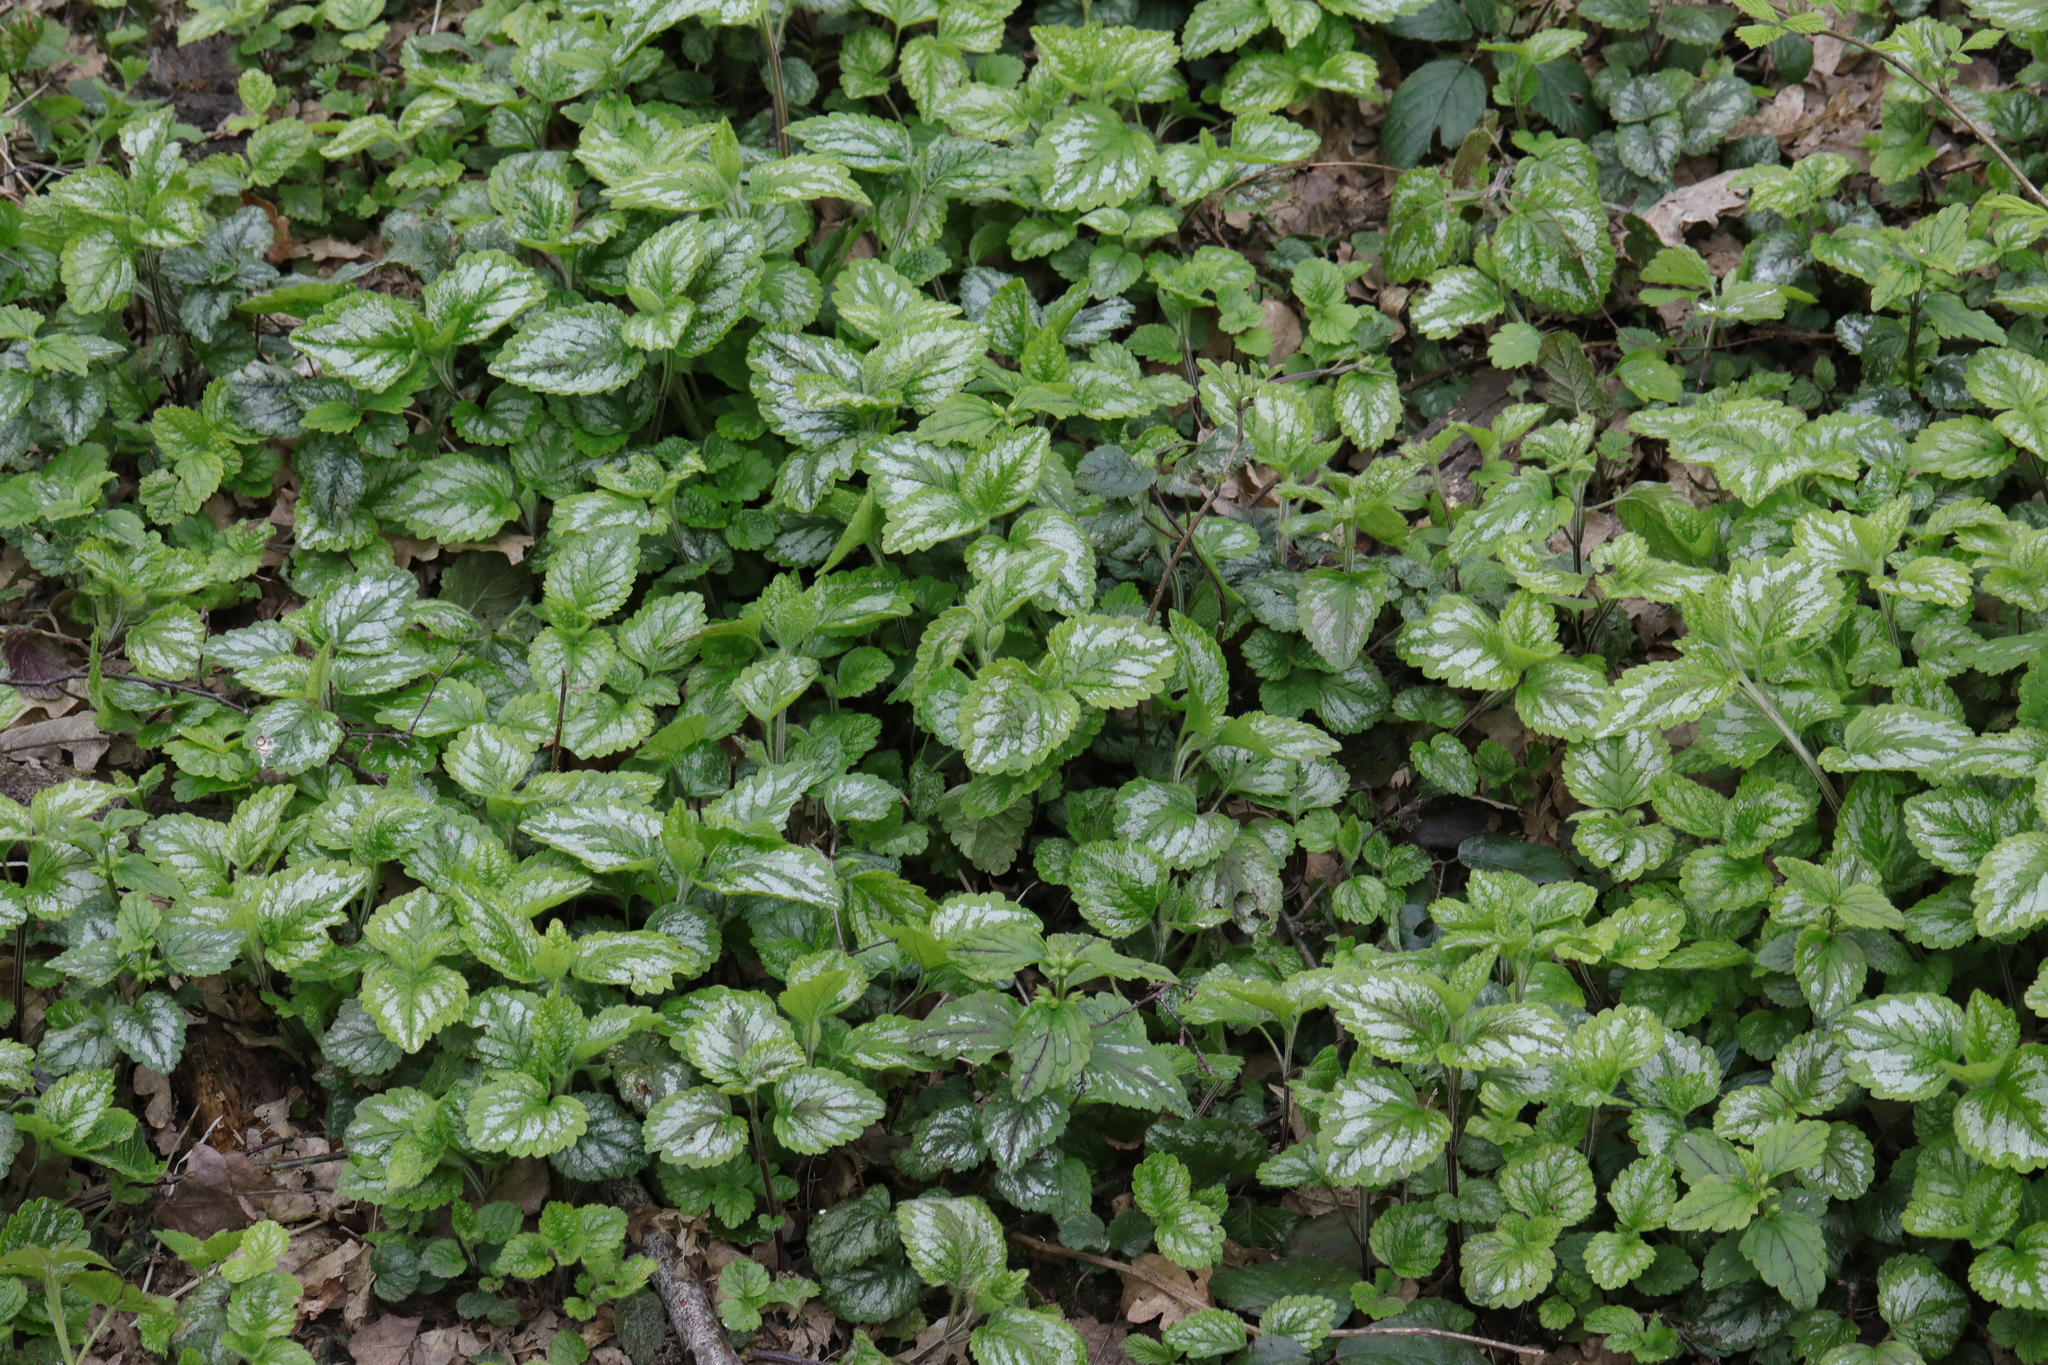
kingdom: Plantae
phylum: Tracheophyta
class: Magnoliopsida
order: Lamiales
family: Lamiaceae
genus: Lamium
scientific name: Lamium galeobdolon
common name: Yellow archangel
